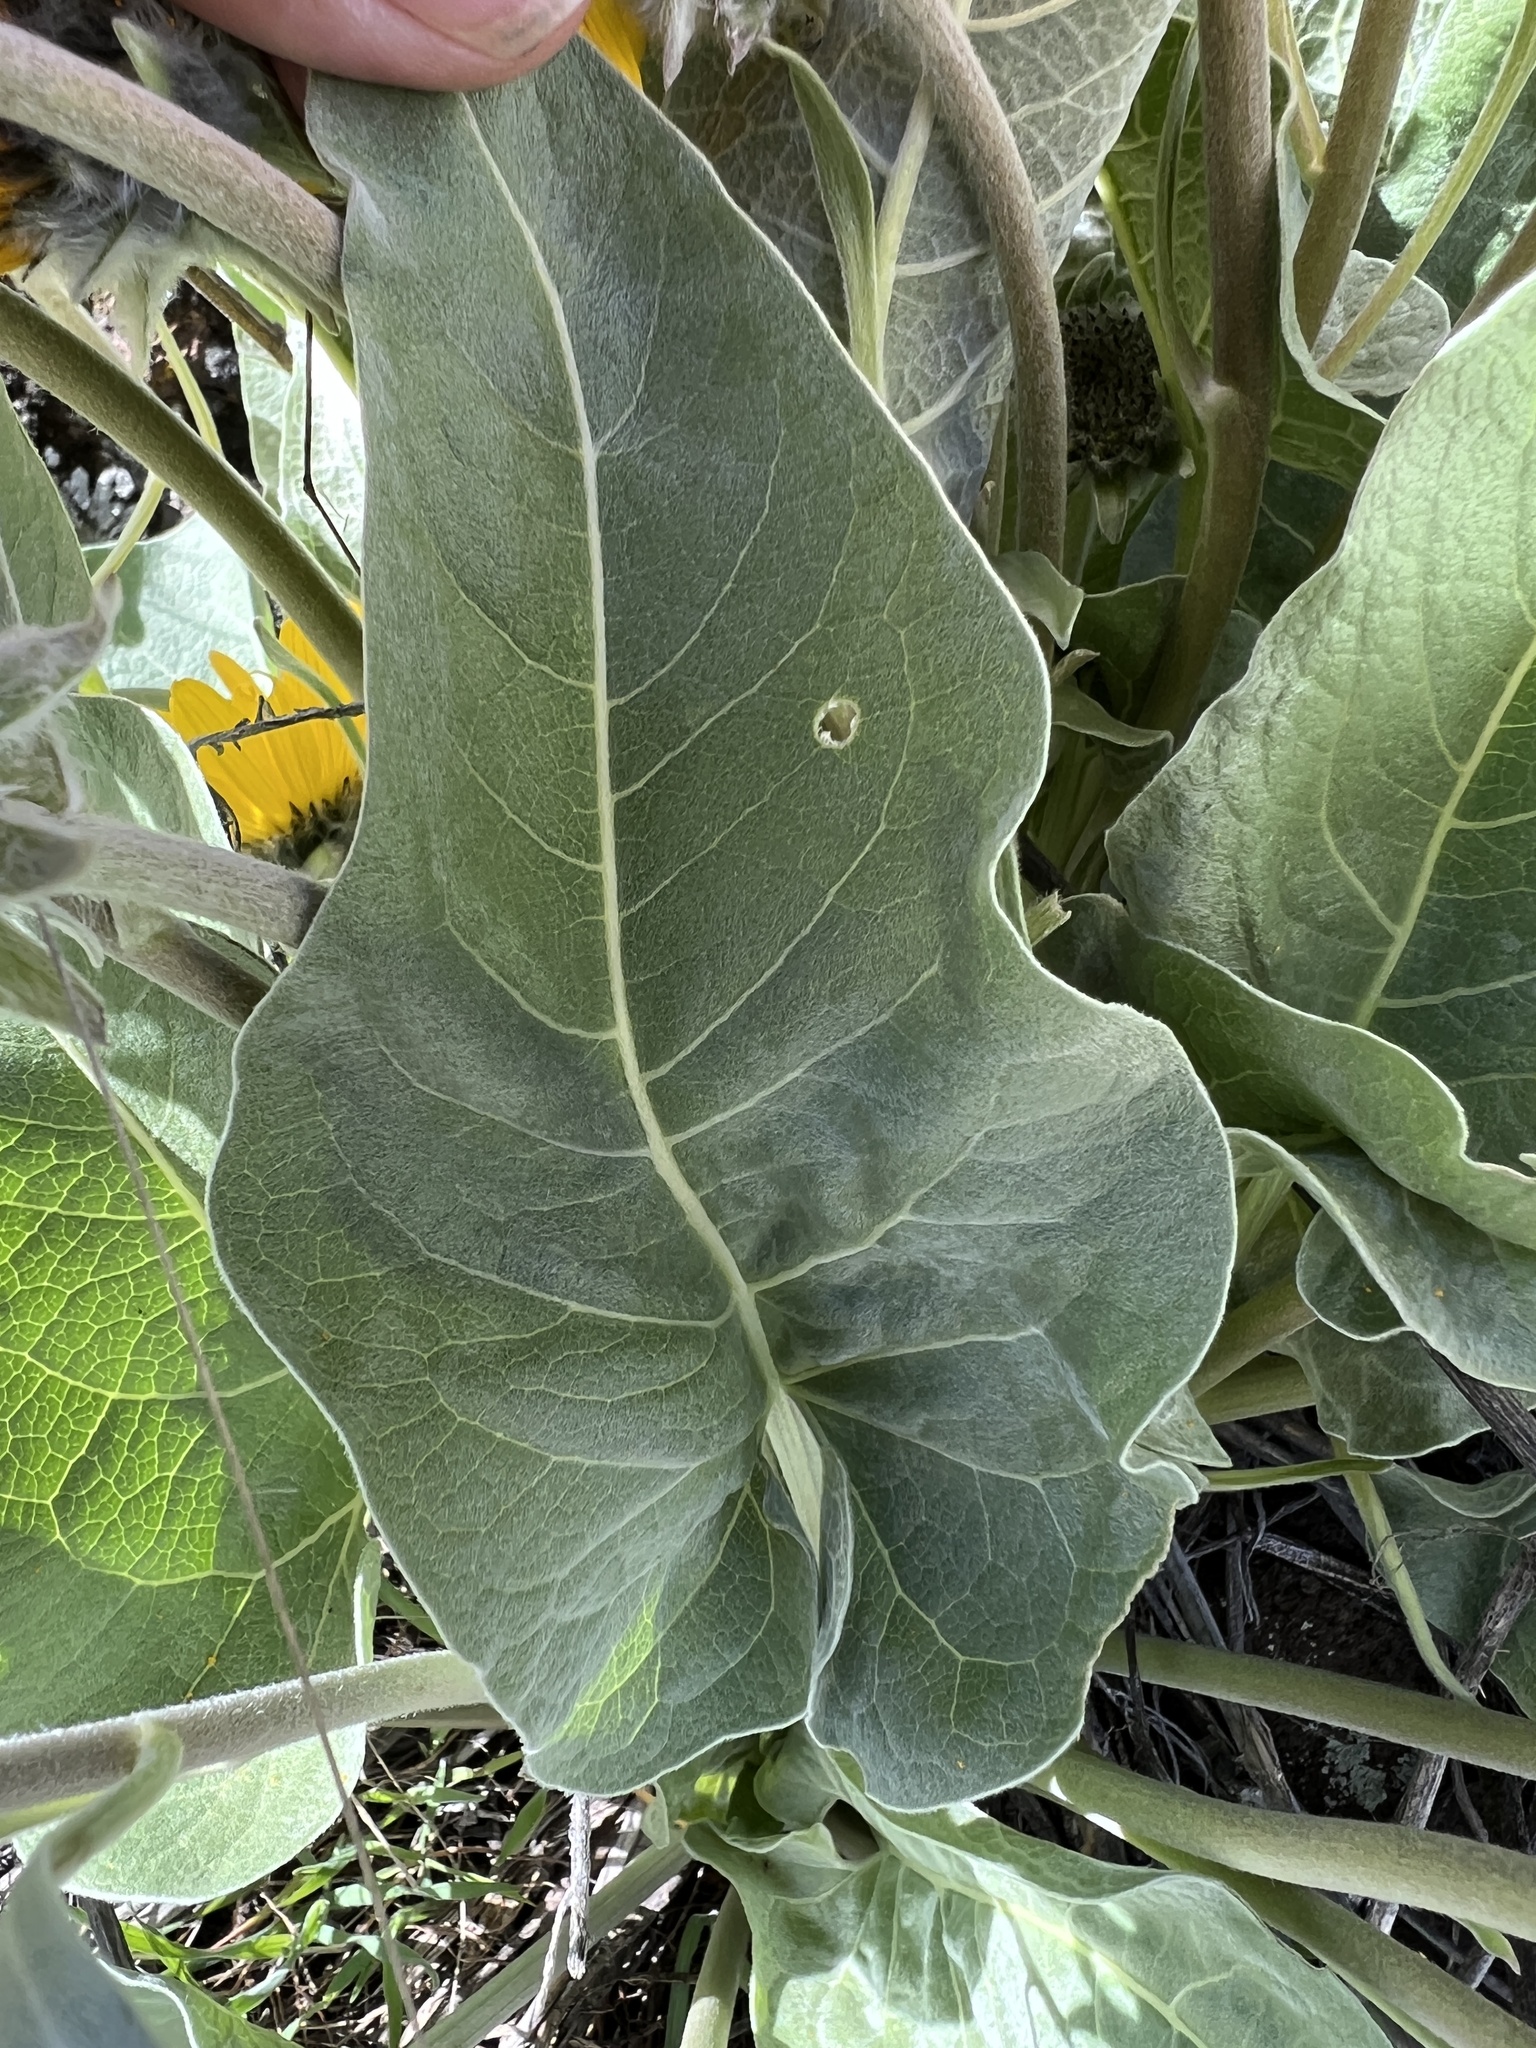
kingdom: Plantae
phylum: Tracheophyta
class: Magnoliopsida
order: Asterales
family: Asteraceae
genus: Wyethia
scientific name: Wyethia sagittata
